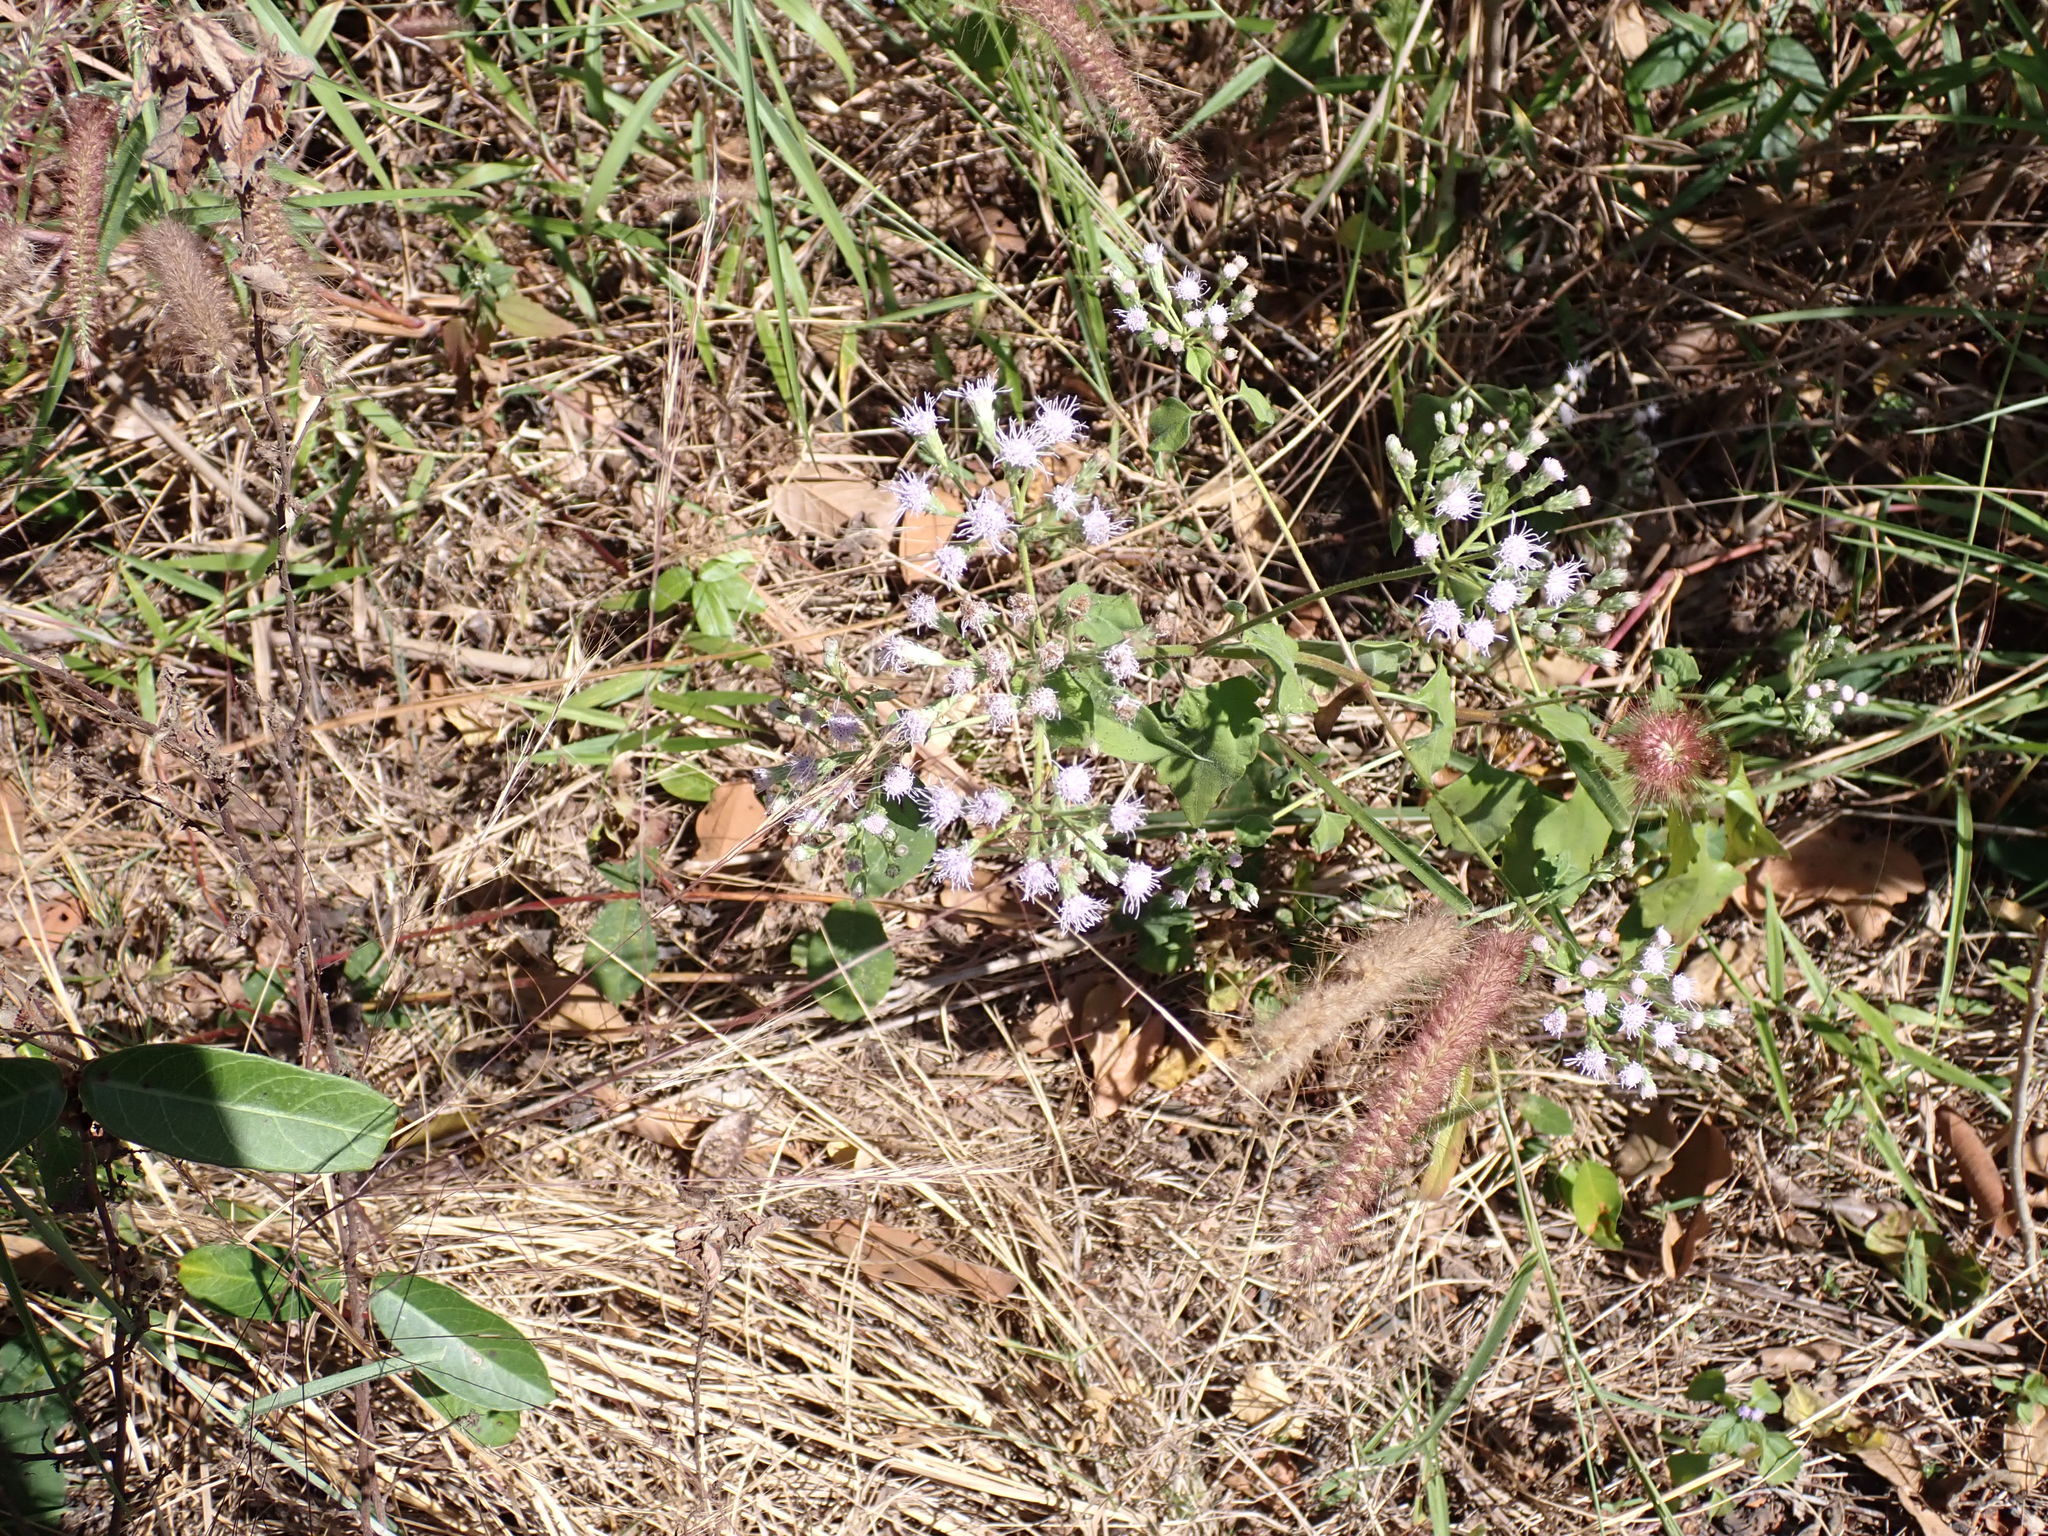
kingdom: Plantae
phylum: Tracheophyta
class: Magnoliopsida
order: Asterales
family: Asteraceae
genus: Chromolaena
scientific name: Chromolaena odorata
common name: Siamweed
